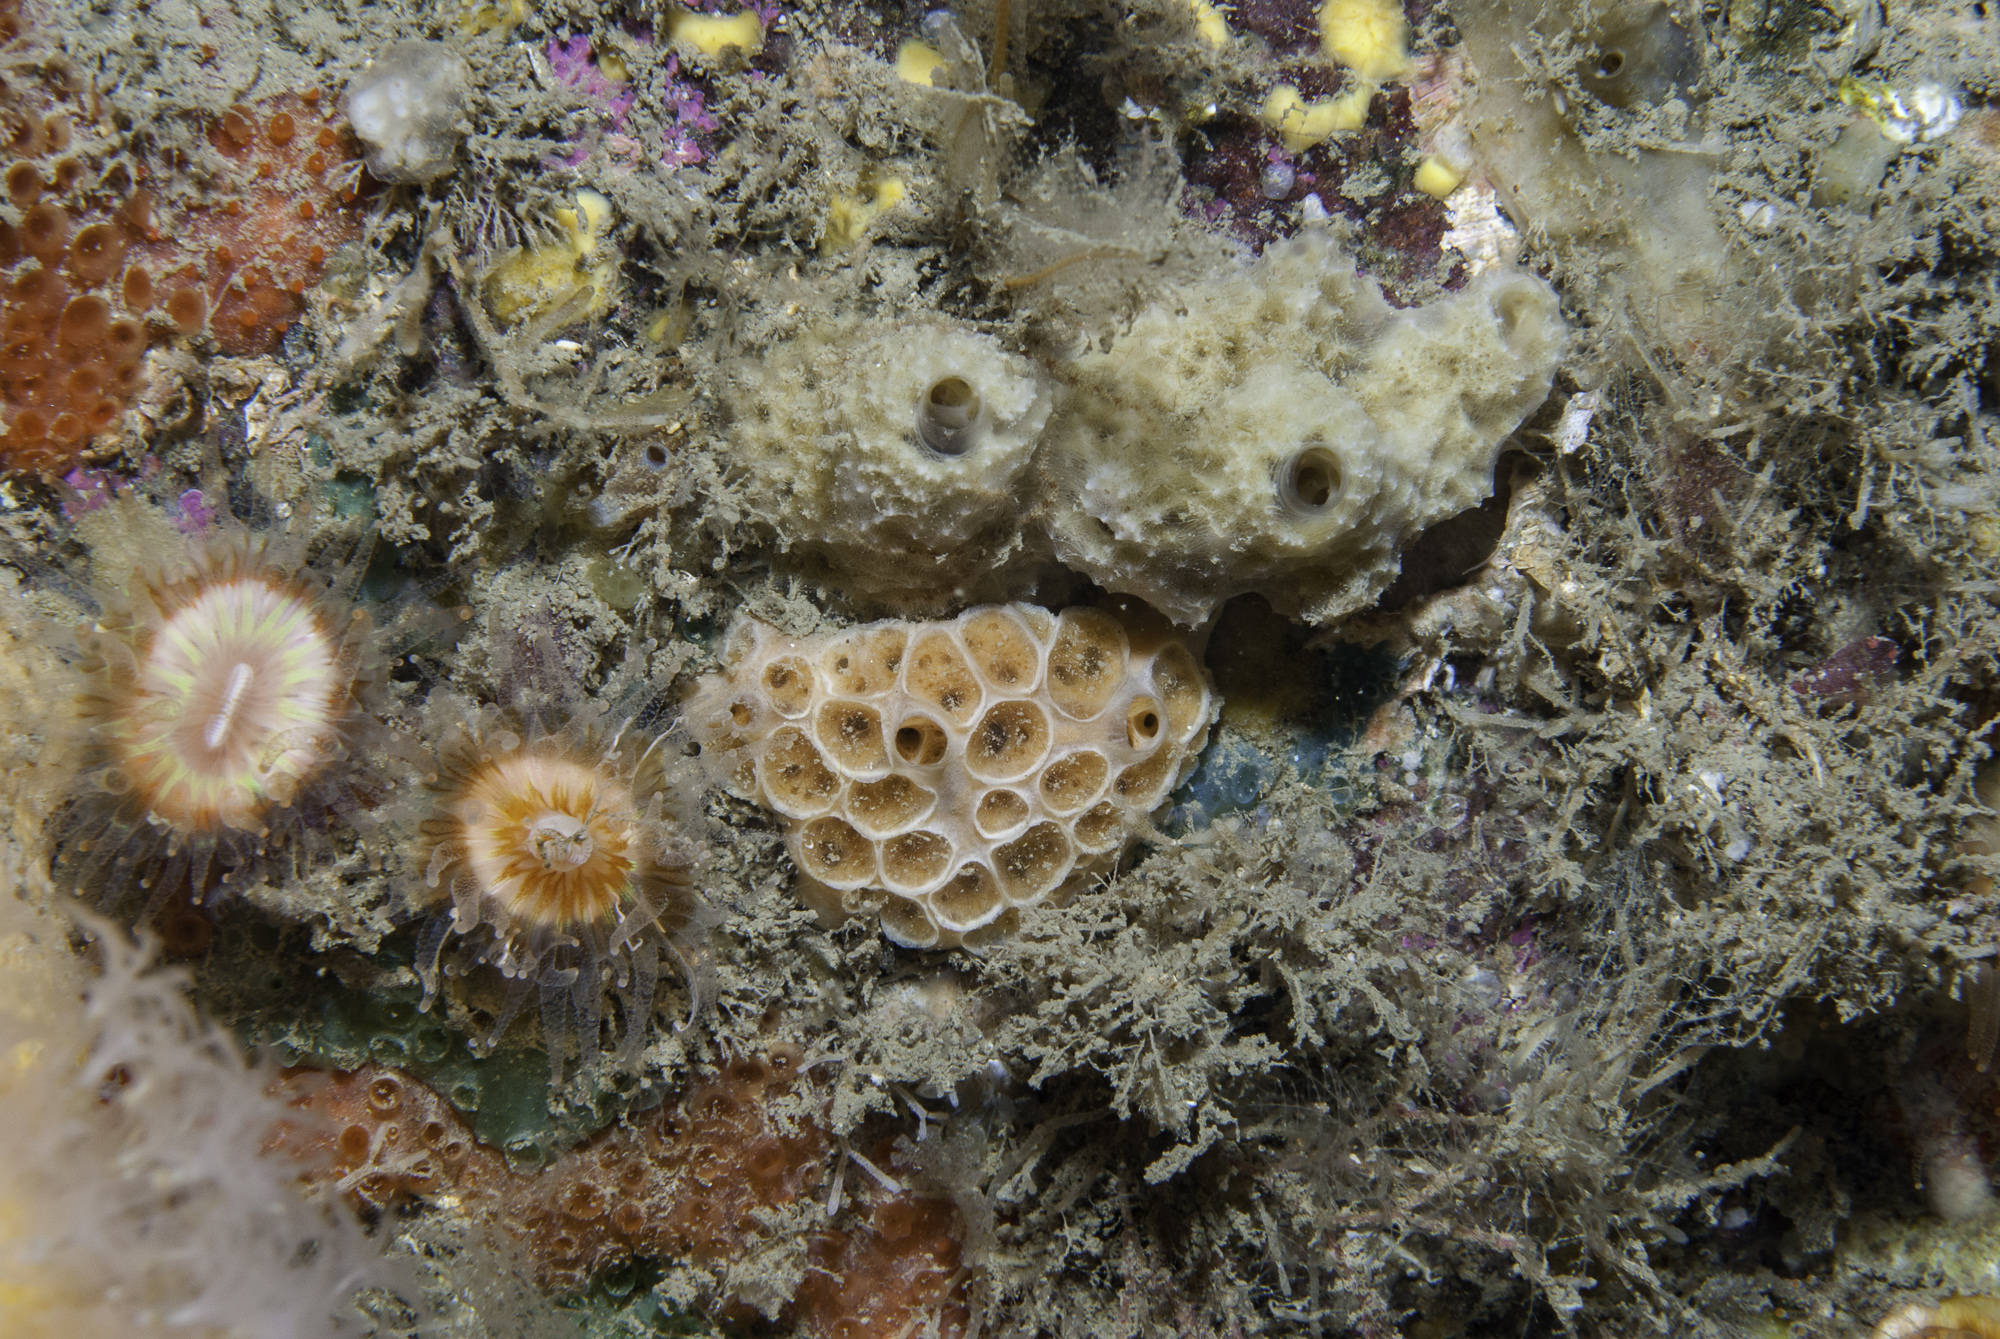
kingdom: Animalia
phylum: Porifera
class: Demospongiae
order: Poecilosclerida
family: Hymedesmiidae
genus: Hemimycale
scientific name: Hemimycale columella
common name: Crater sponge
